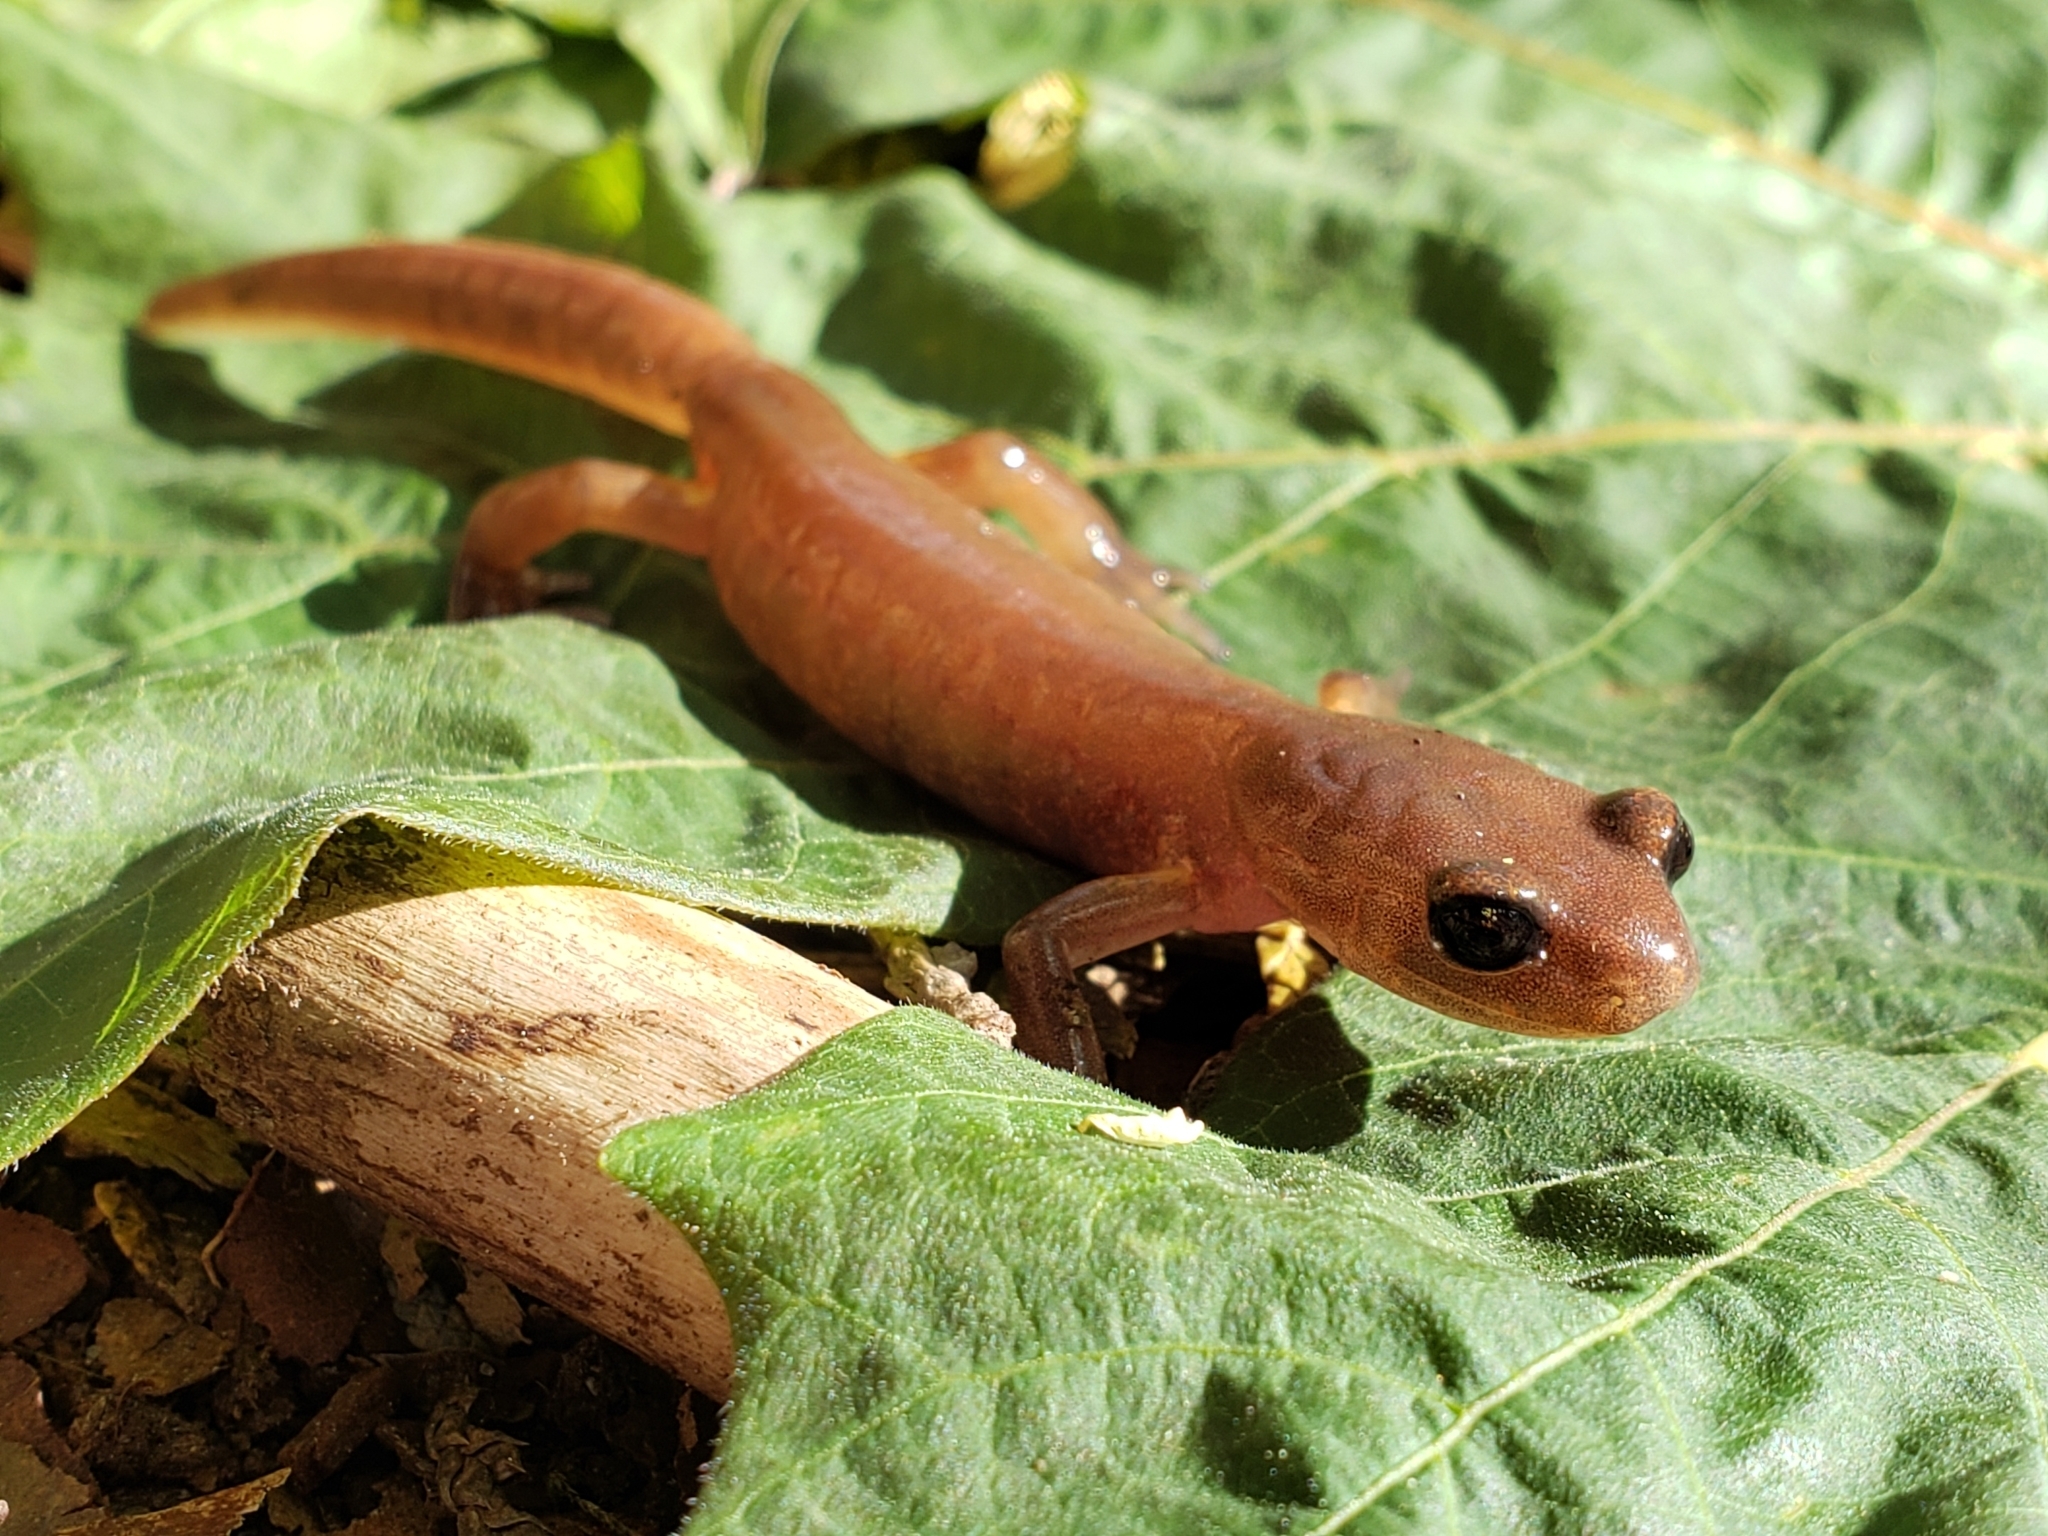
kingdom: Animalia
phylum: Chordata
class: Amphibia
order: Caudata
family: Plethodontidae
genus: Ensatina
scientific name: Ensatina eschscholtzii
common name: Ensatina
